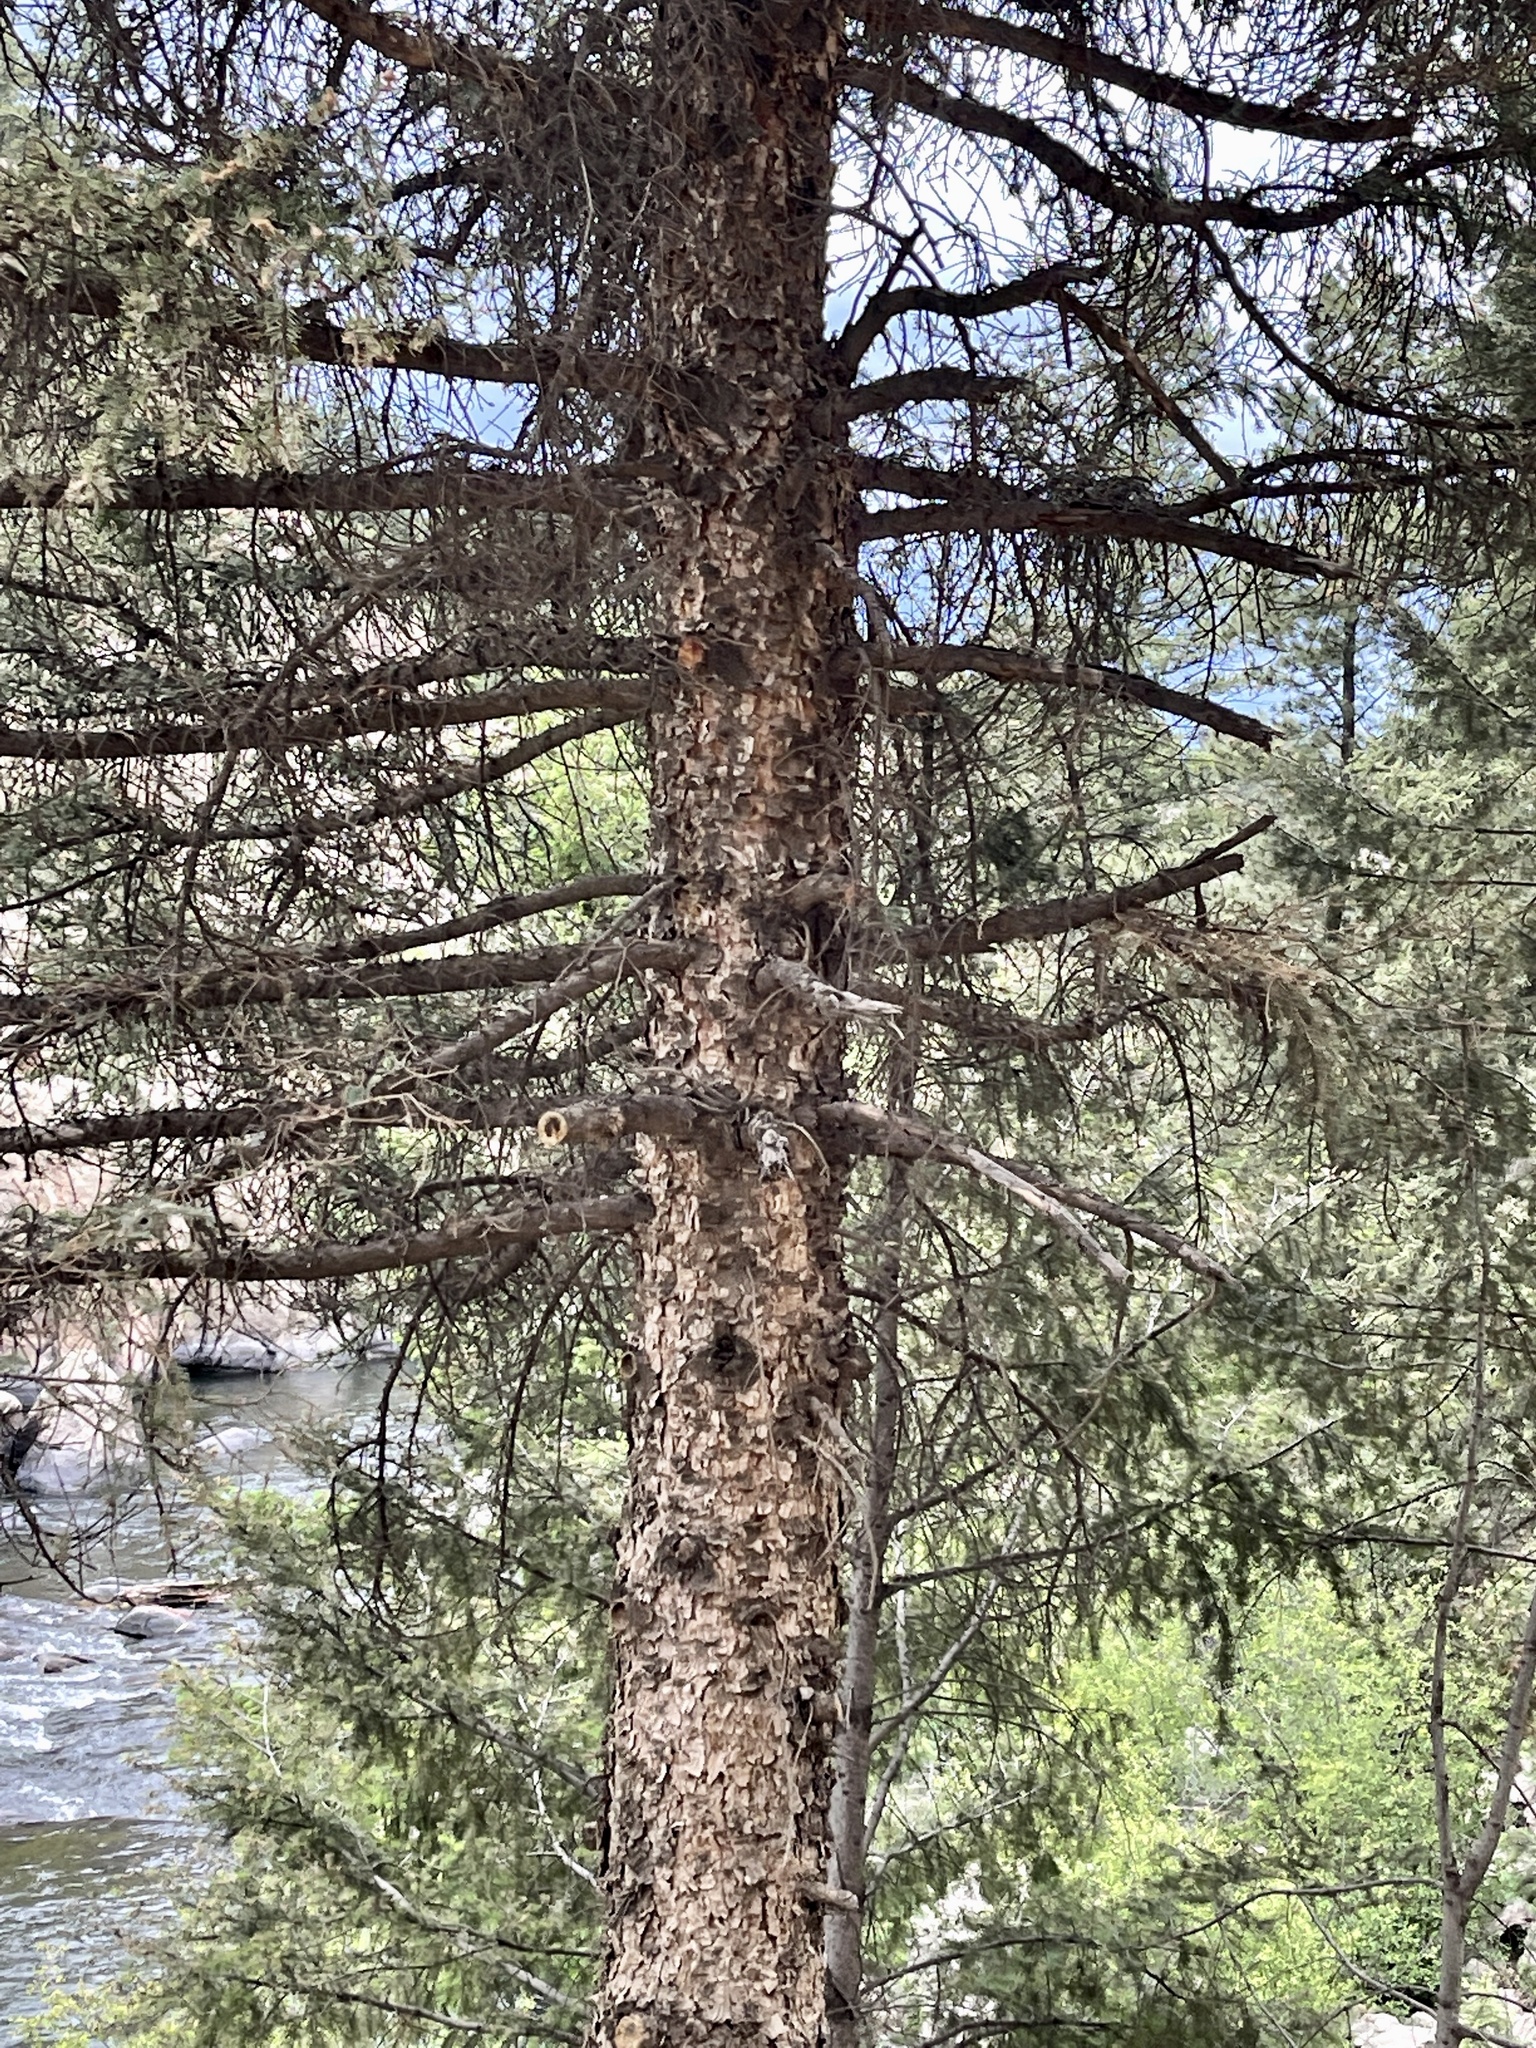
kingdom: Plantae
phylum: Tracheophyta
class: Pinopsida
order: Pinales
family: Pinaceae
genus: Picea
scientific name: Picea engelmannii
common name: Engelmann spruce
